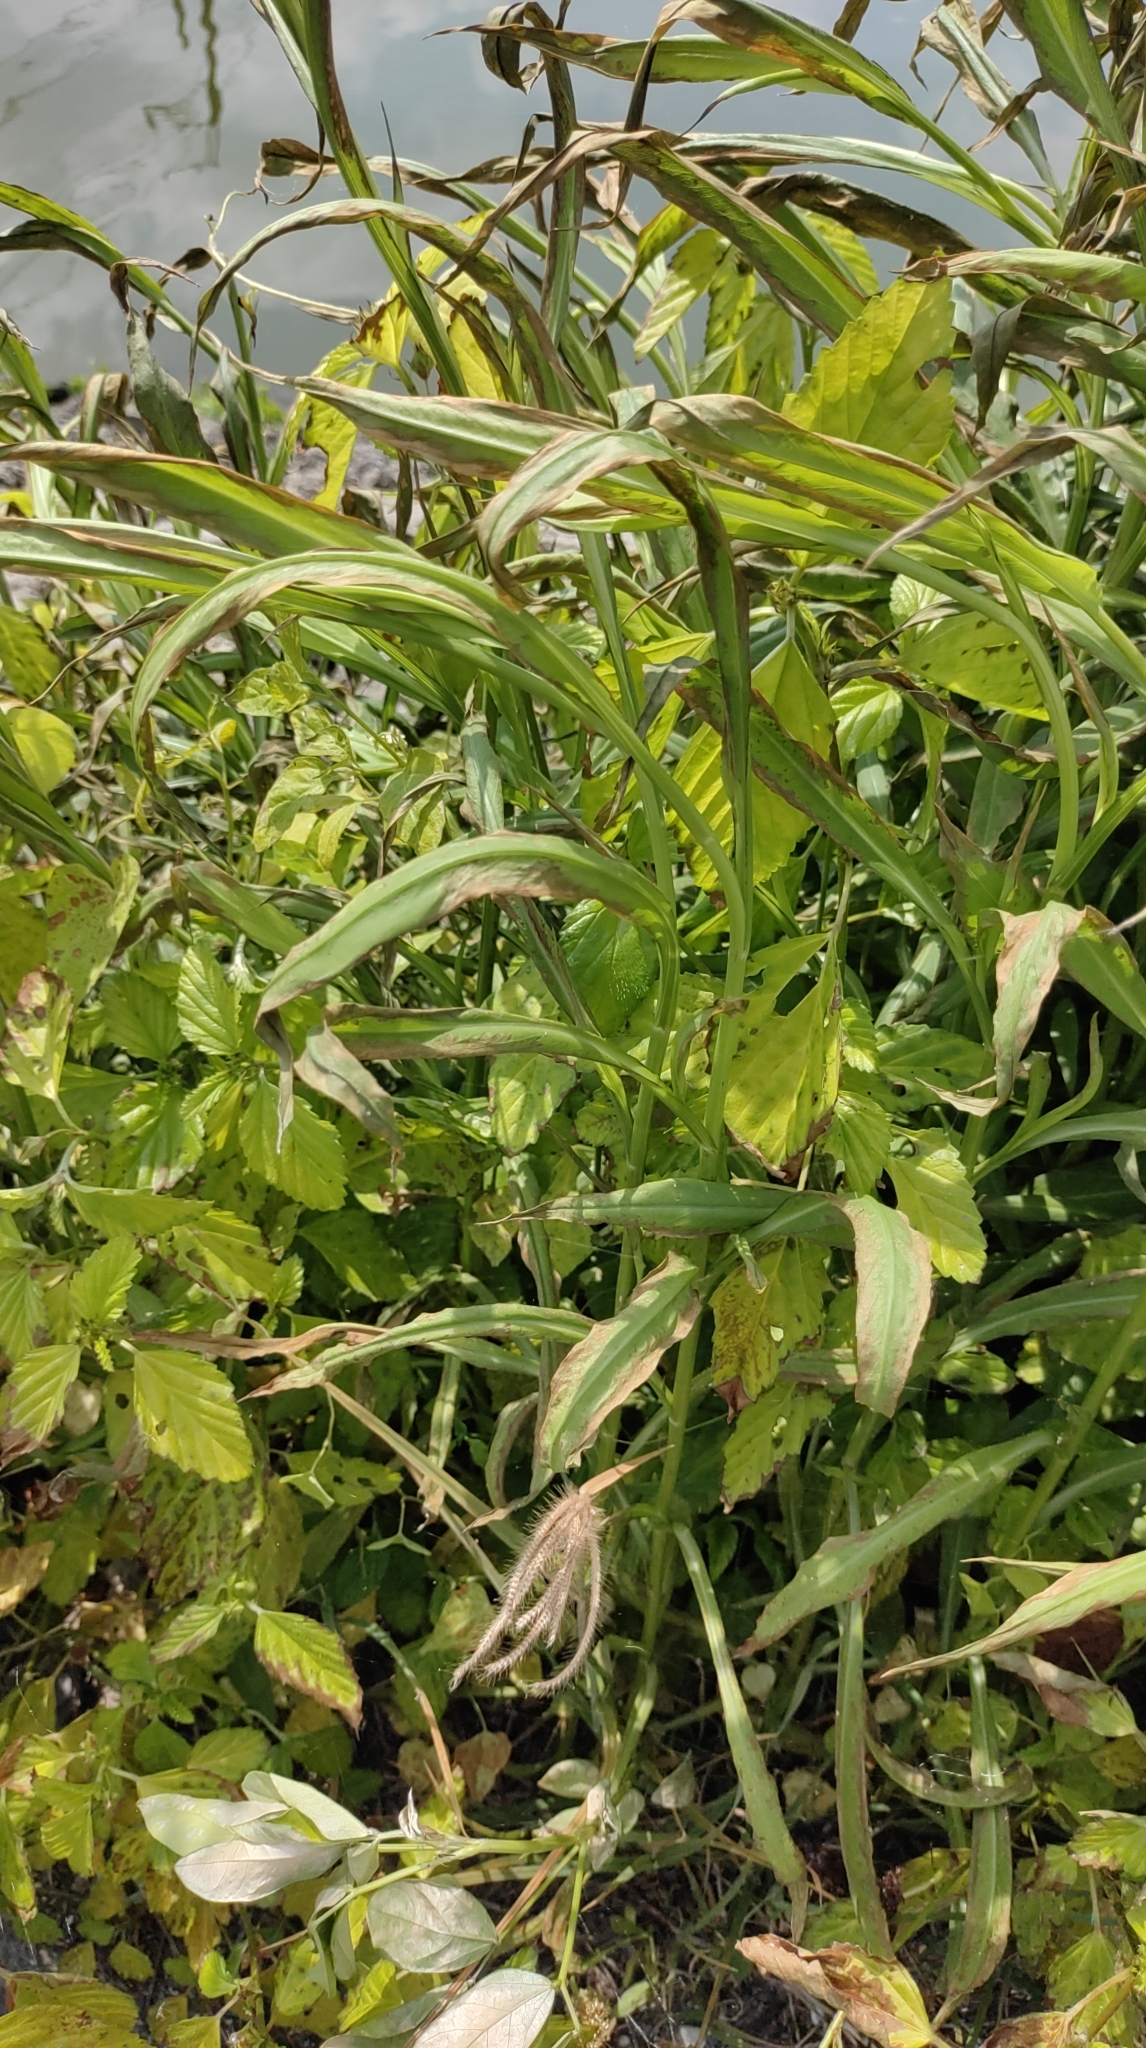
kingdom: Plantae
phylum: Tracheophyta
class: Magnoliopsida
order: Asterales
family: Asteraceae
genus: Symphyotrichum
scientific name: Symphyotrichum subulatum
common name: Annual saltmarsh aster
